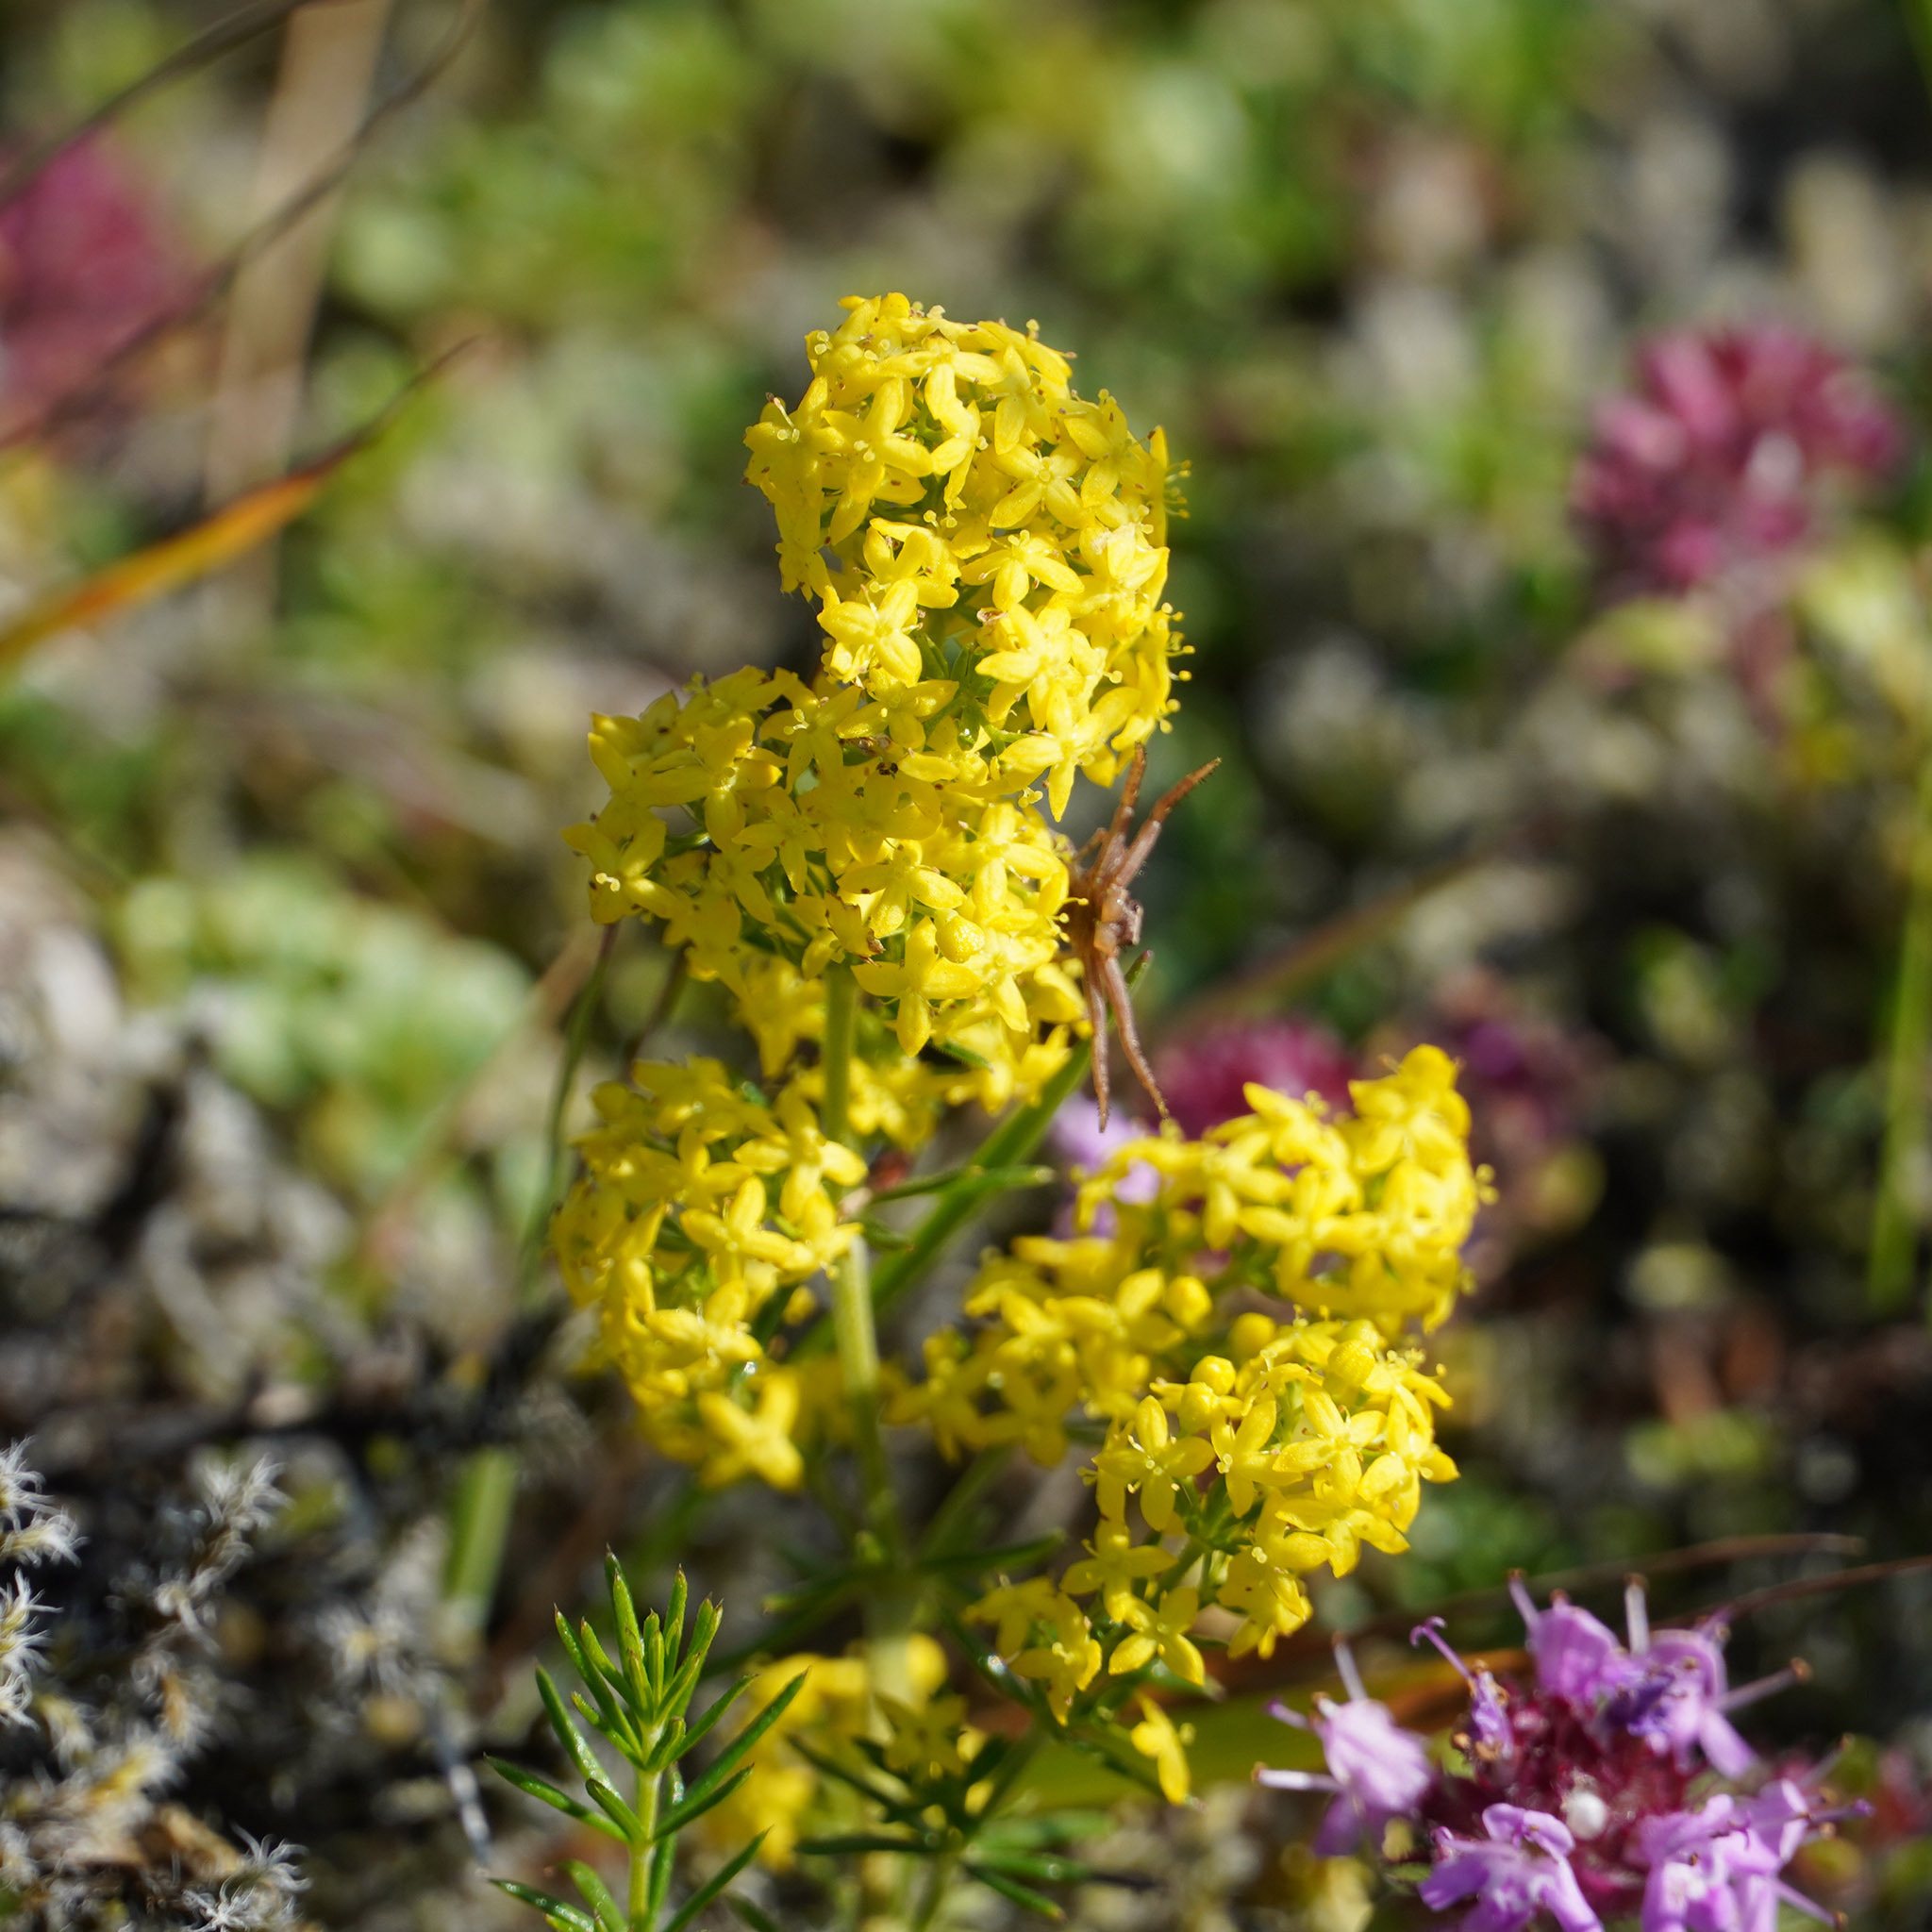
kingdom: Plantae
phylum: Tracheophyta
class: Magnoliopsida
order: Gentianales
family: Rubiaceae
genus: Galium
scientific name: Galium verum
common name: Lady's bedstraw
